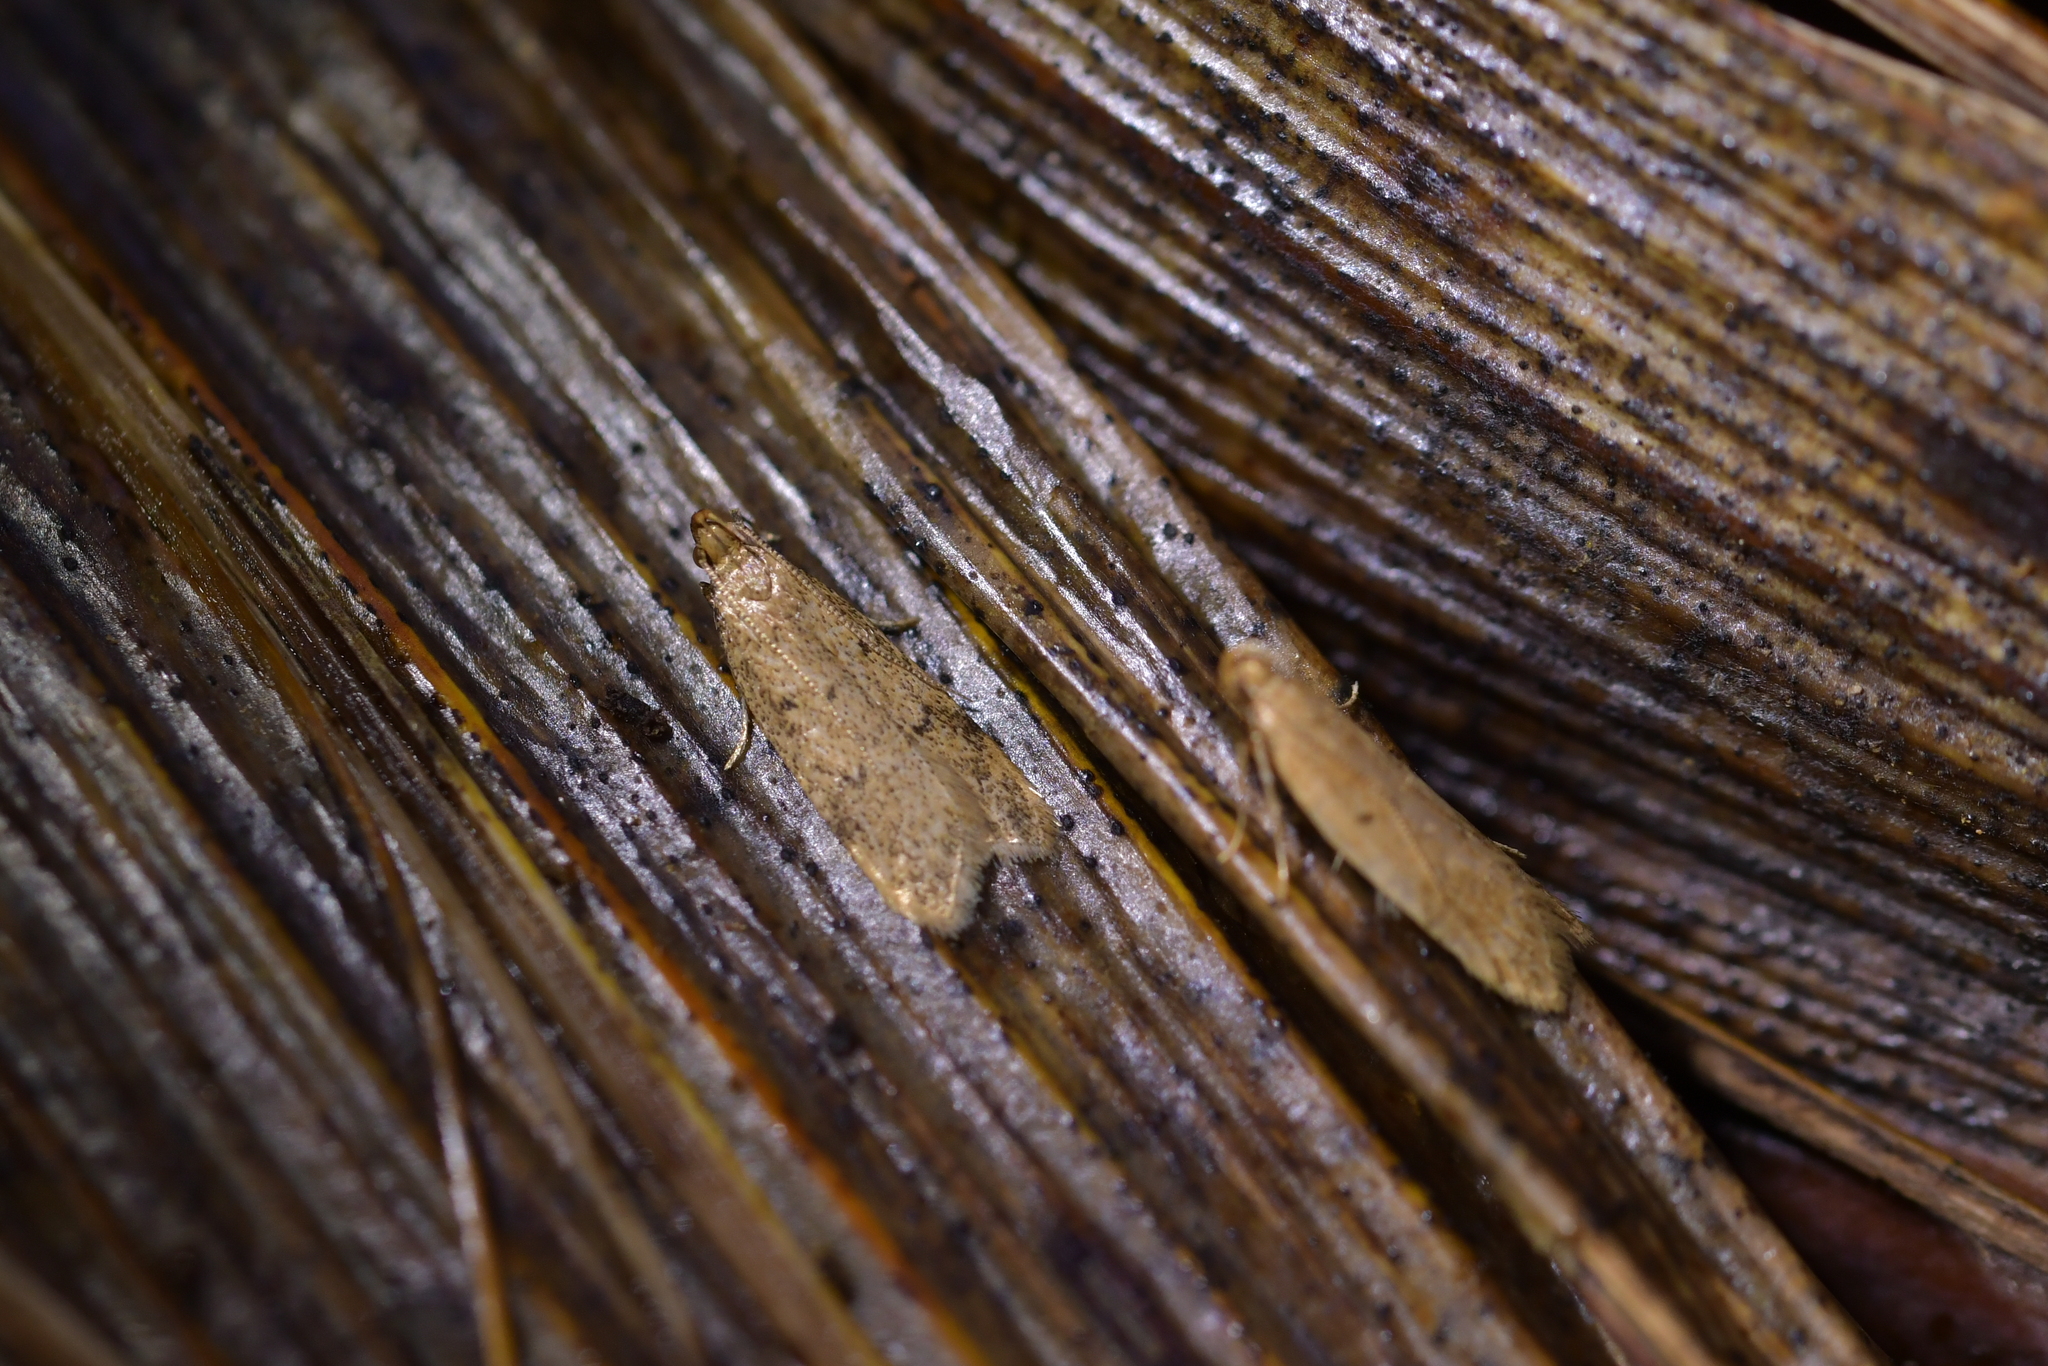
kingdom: Animalia
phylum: Arthropoda
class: Insecta
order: Lepidoptera
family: Oecophoridae
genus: Gymnobathra
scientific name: Gymnobathra levigata
